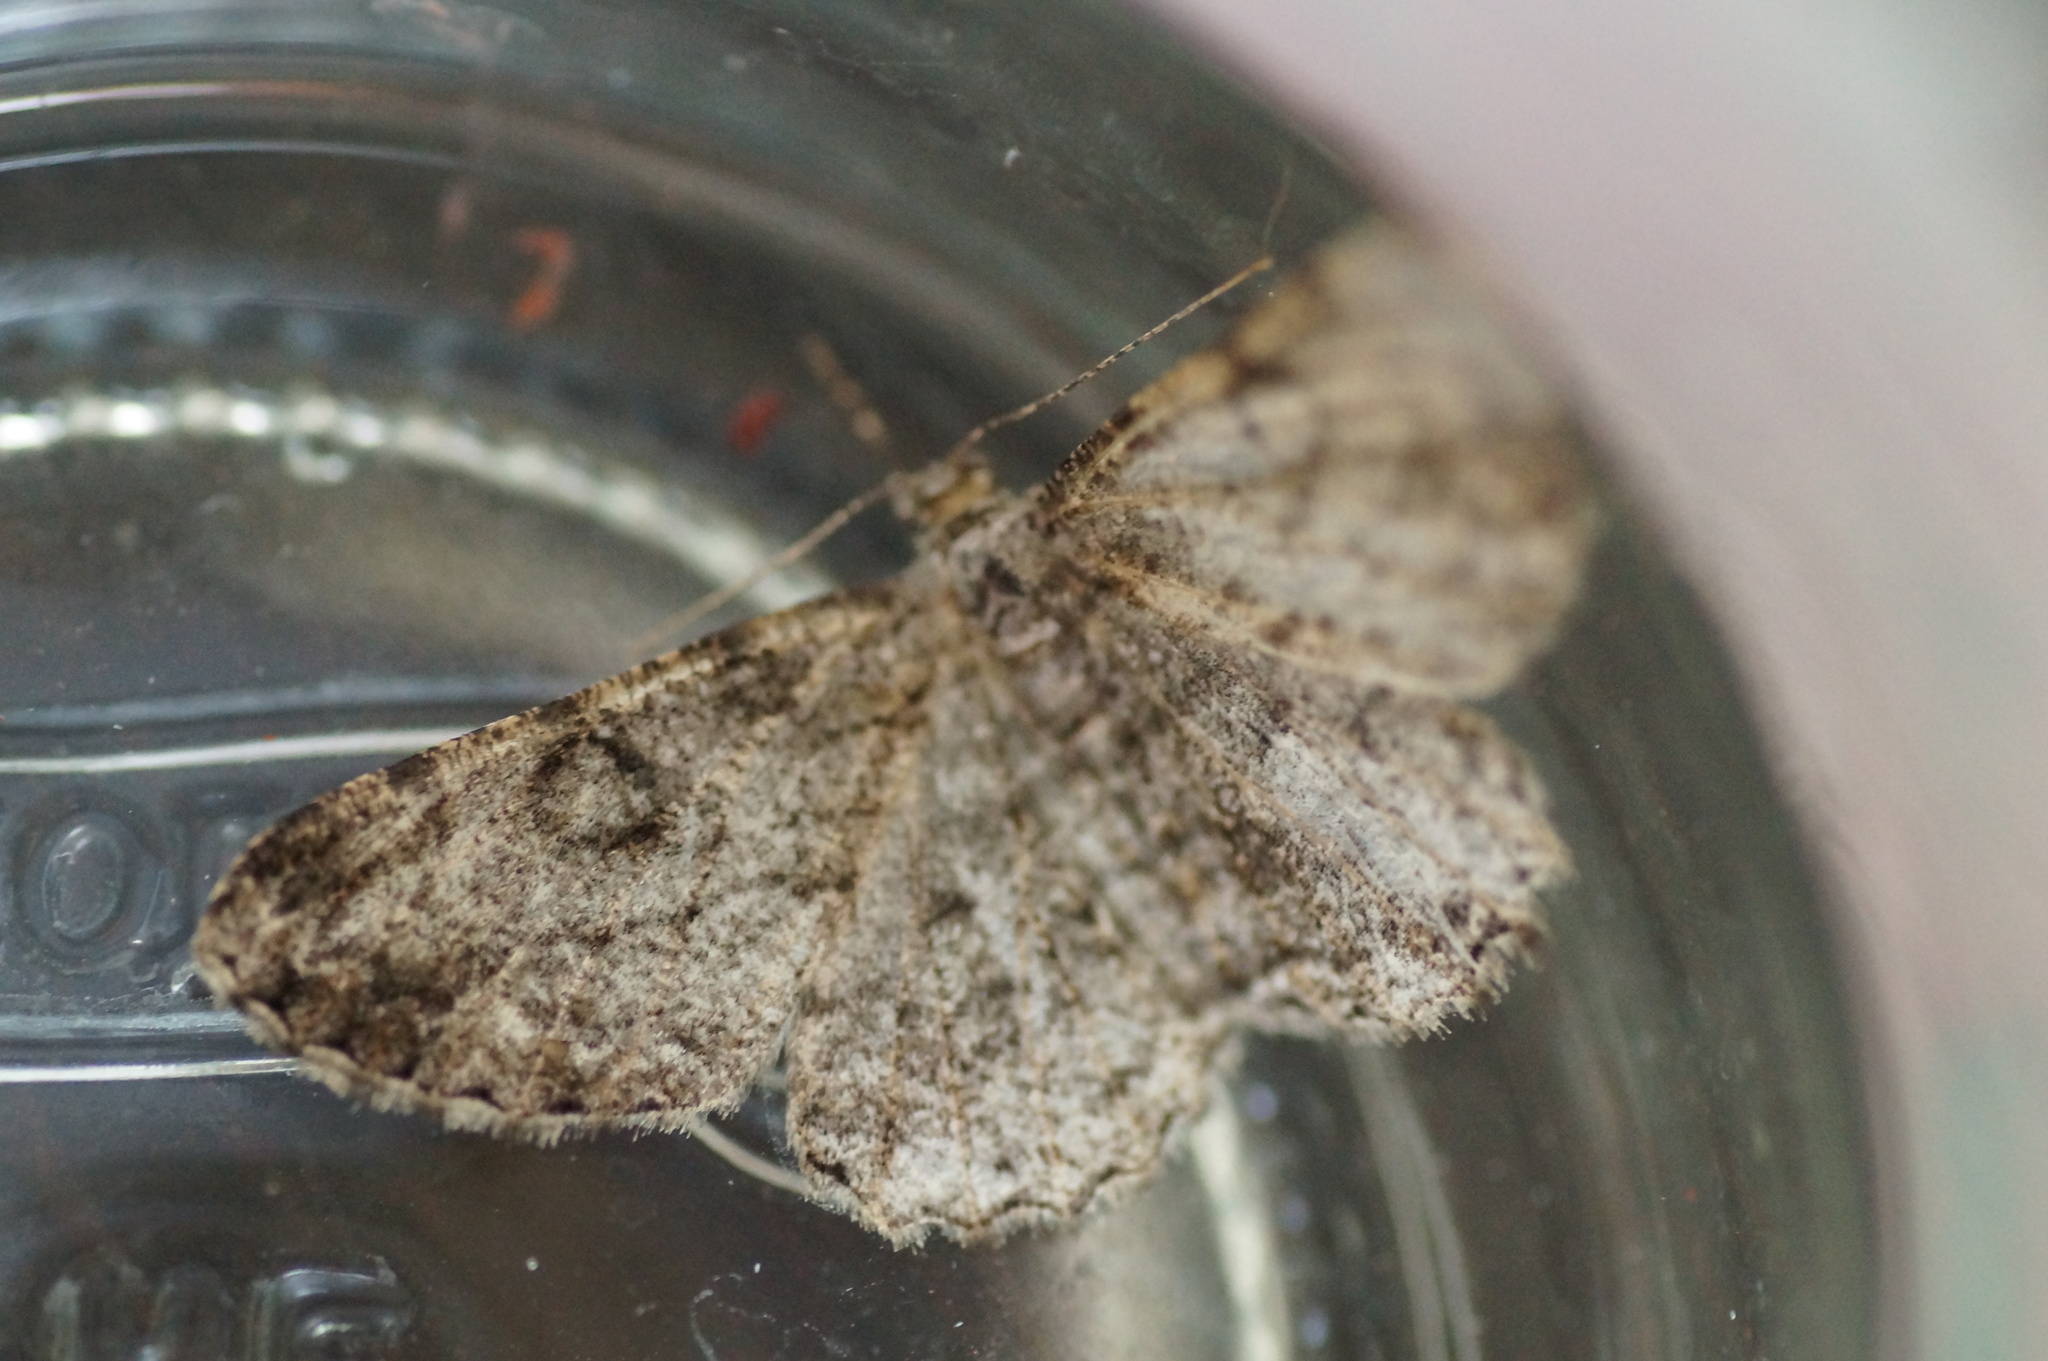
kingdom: Animalia
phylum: Arthropoda
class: Insecta
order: Lepidoptera
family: Geometridae
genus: Peribatodes
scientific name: Peribatodes rhomboidaria
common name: Willow beauty
